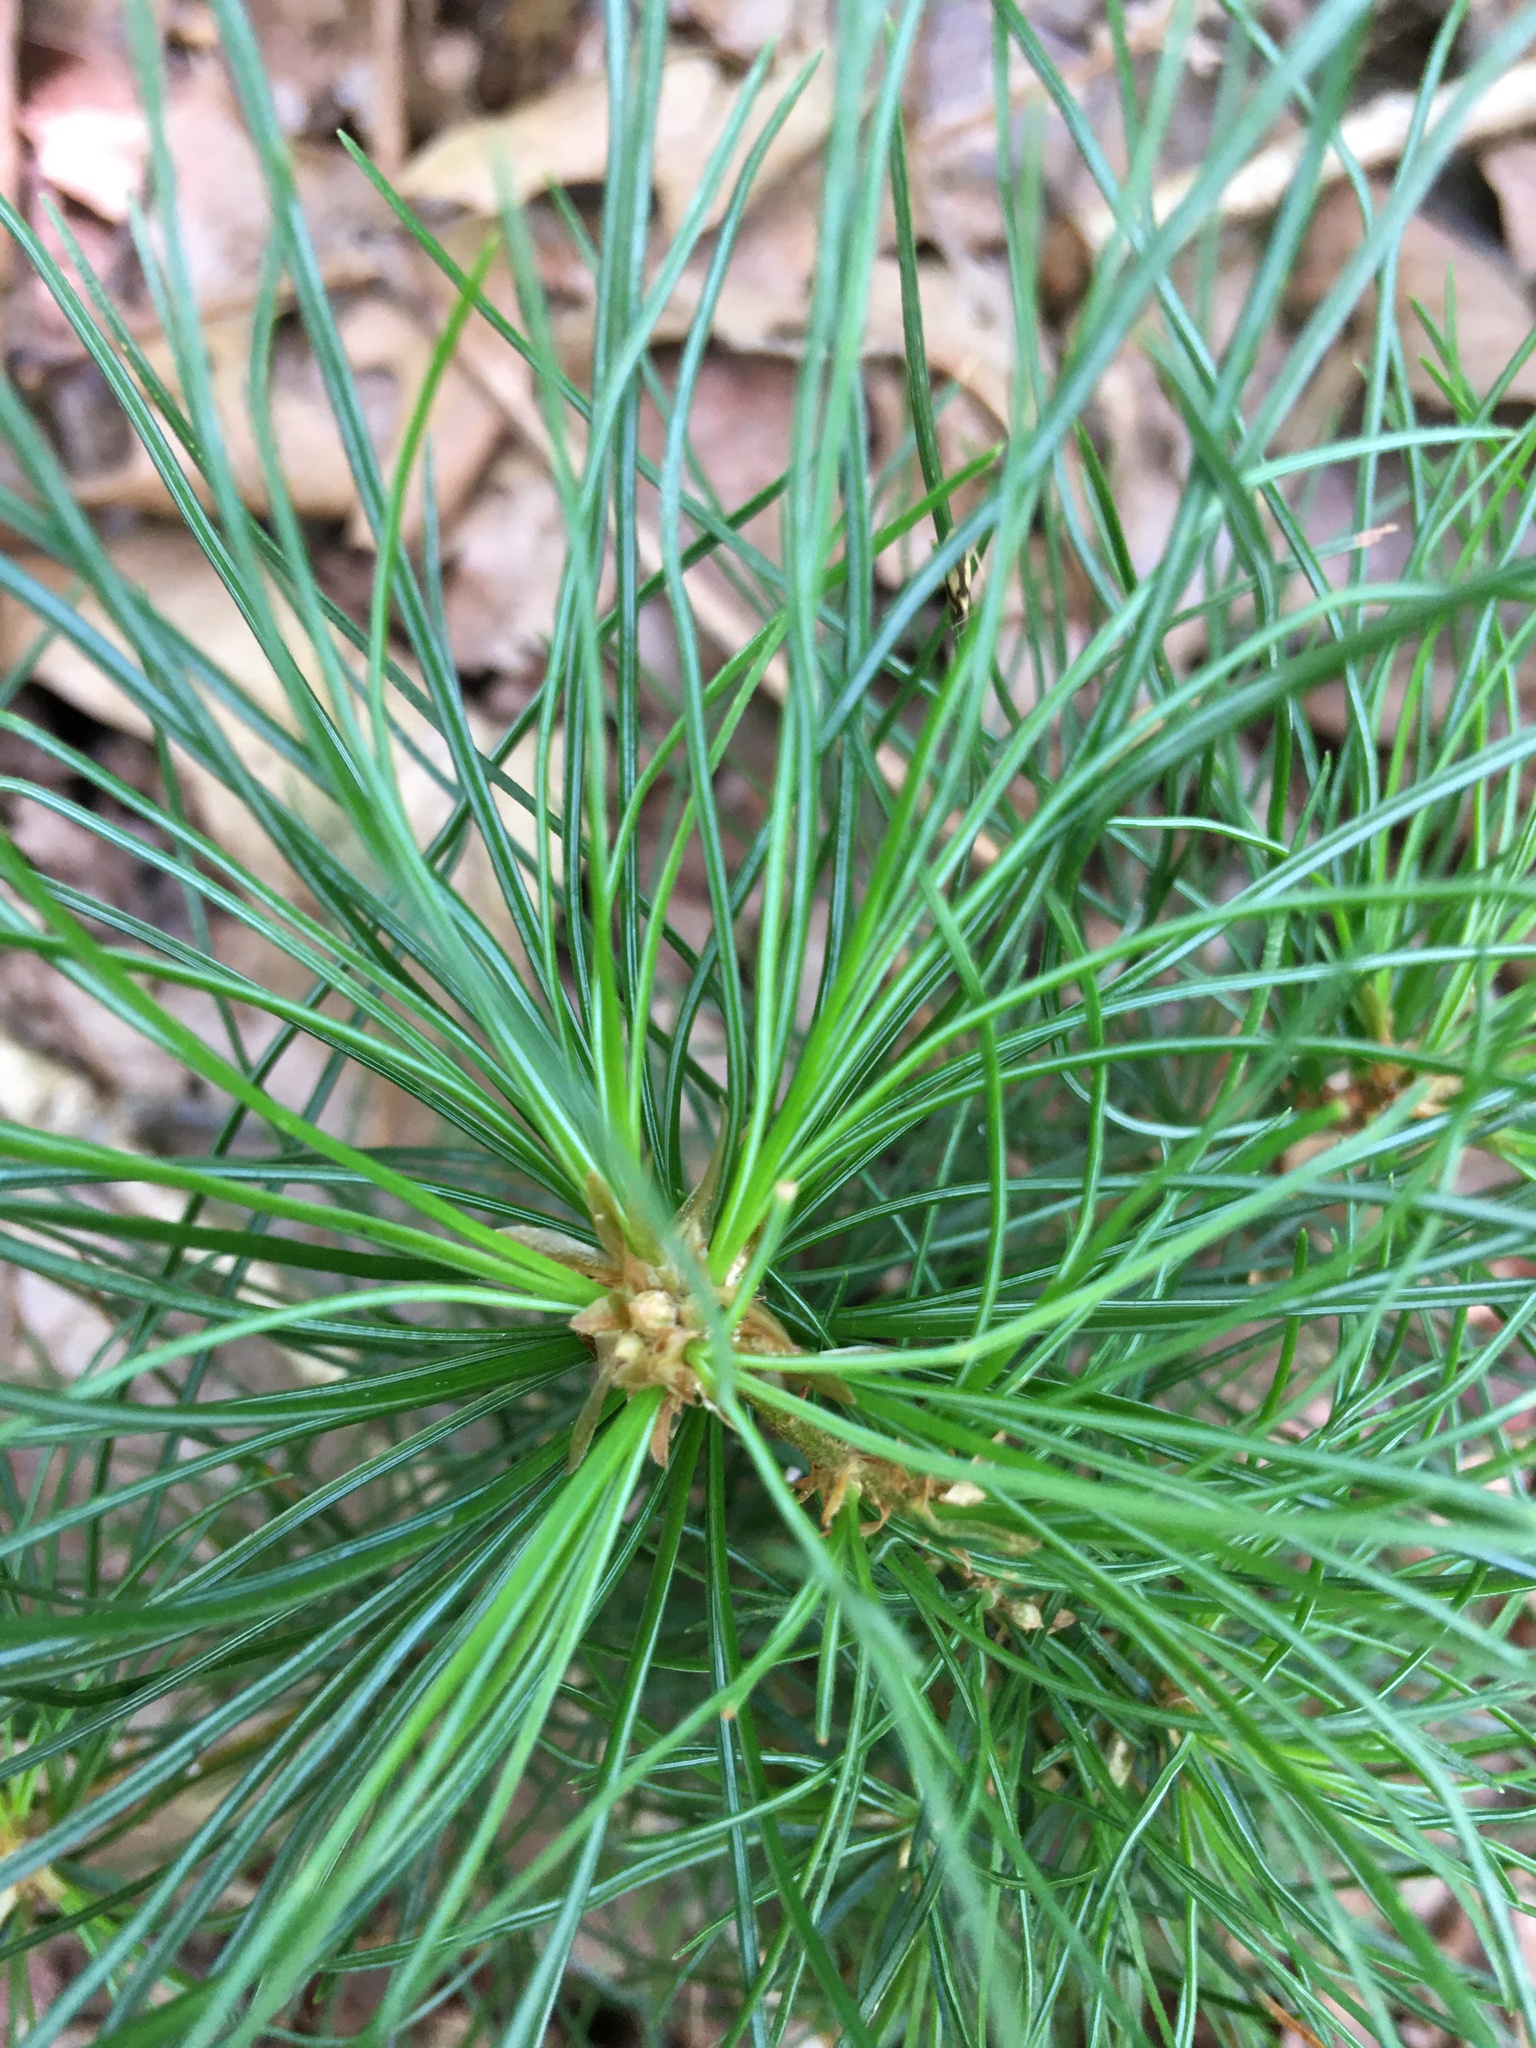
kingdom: Plantae
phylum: Tracheophyta
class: Pinopsida
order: Pinales
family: Pinaceae
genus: Pinus
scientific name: Pinus strobus
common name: Weymouth pine
